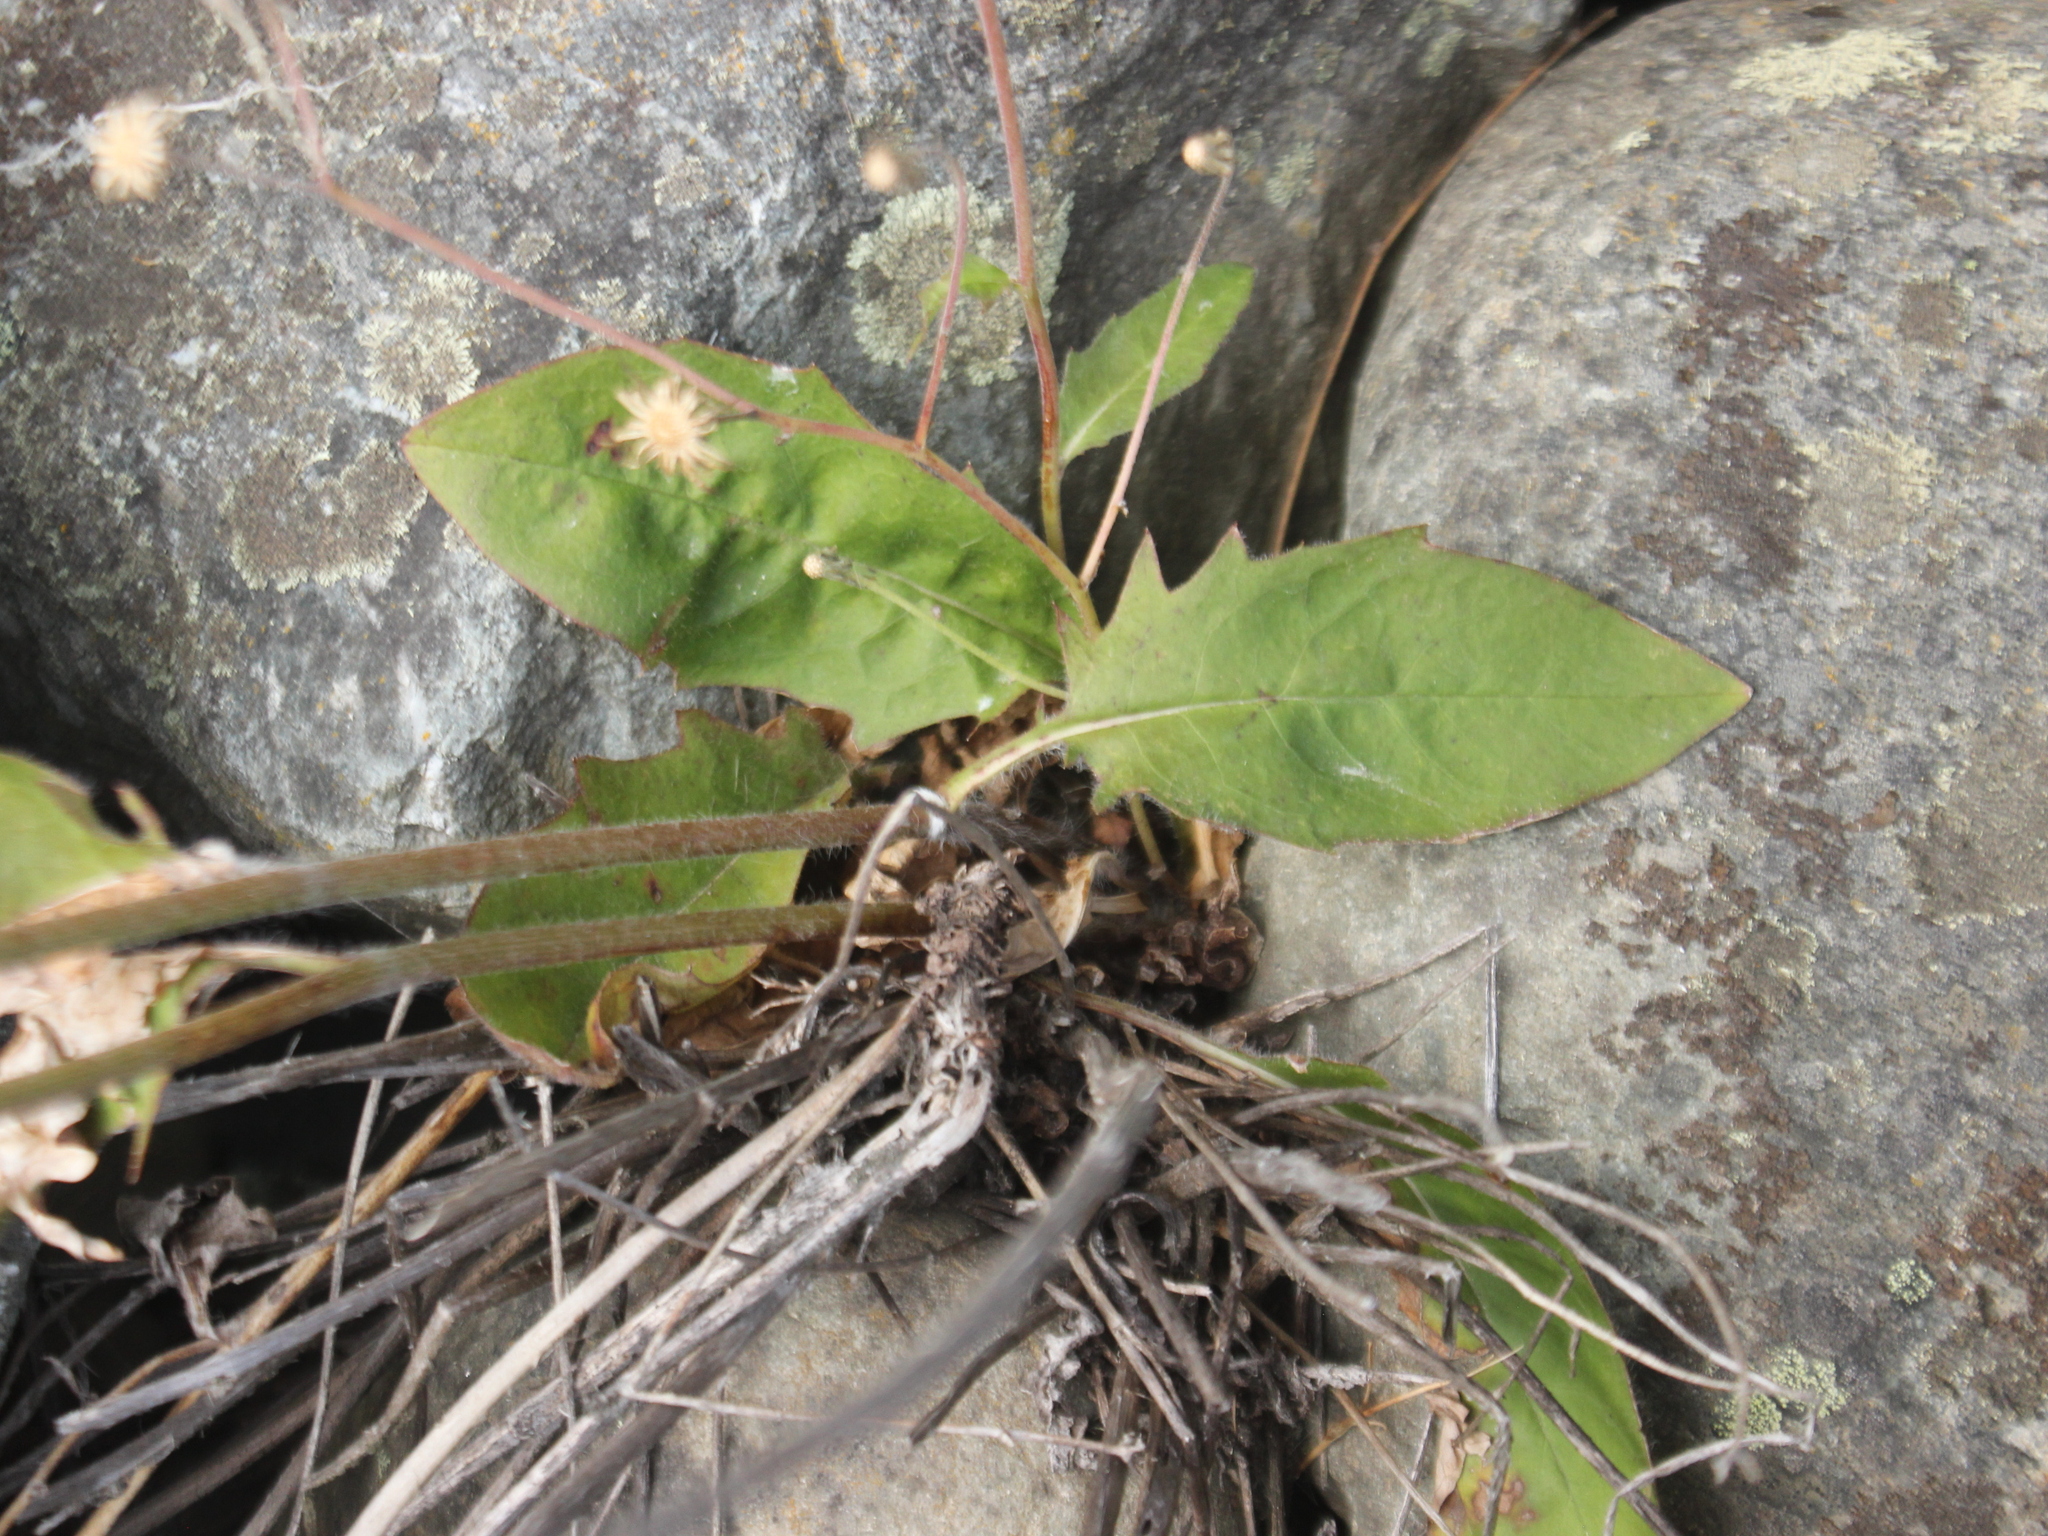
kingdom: Plantae
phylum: Tracheophyta
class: Magnoliopsida
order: Asterales
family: Asteraceae
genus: Hieracium
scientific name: Hieracium lepidulum
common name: Irregular-toothed hawkweed
